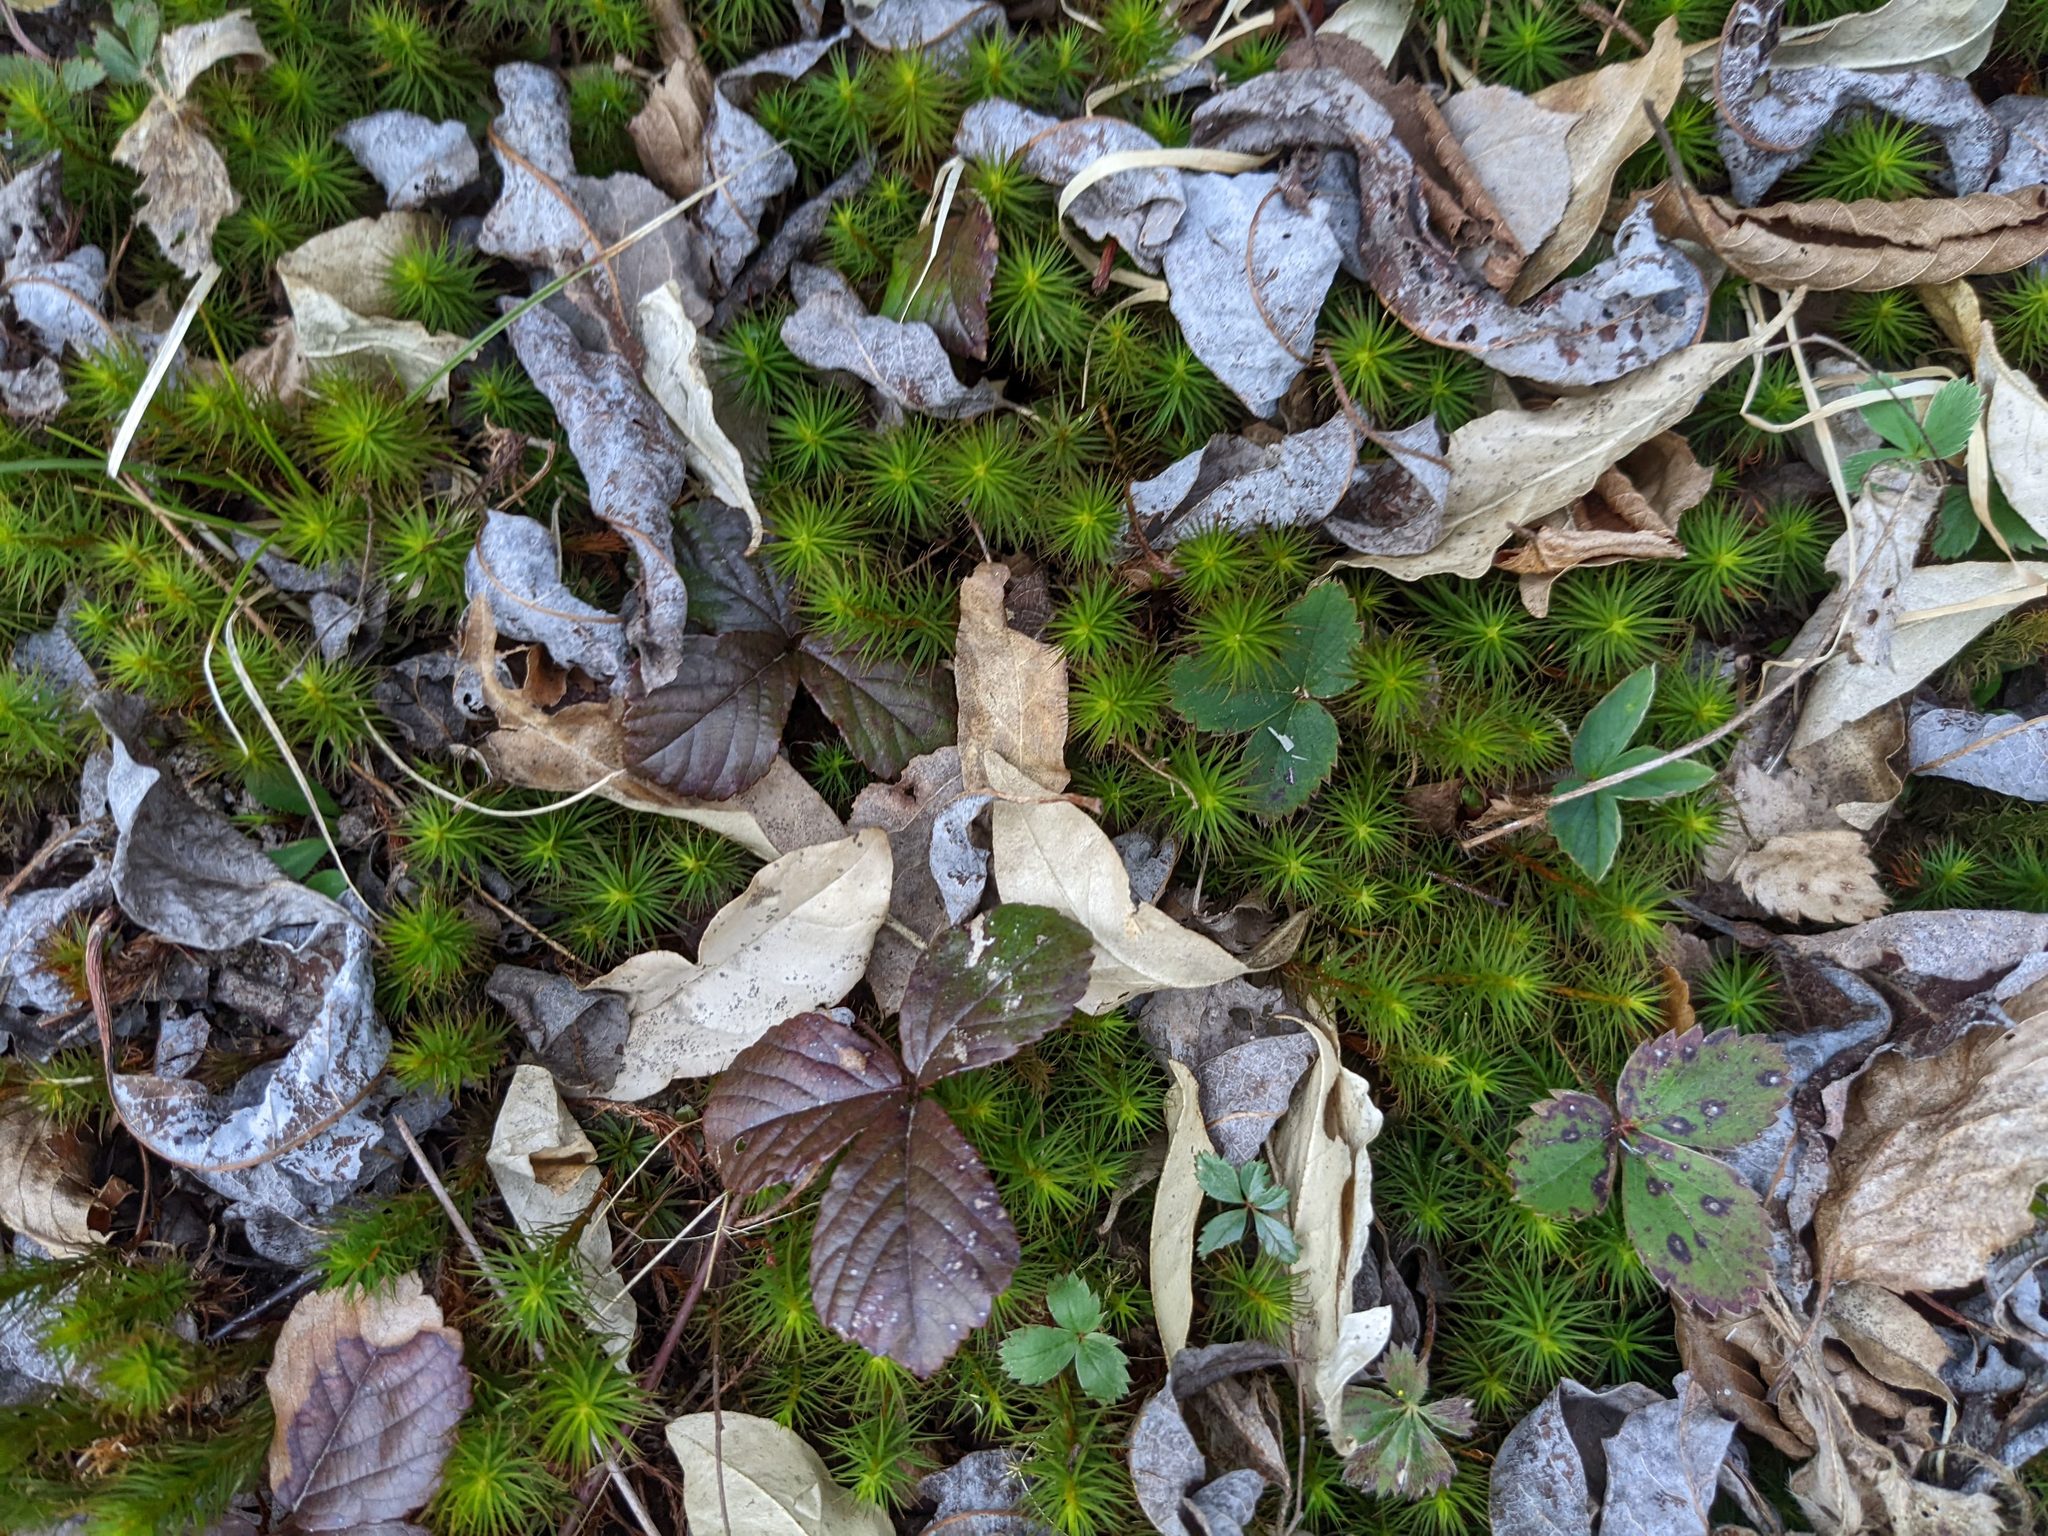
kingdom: Plantae
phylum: Tracheophyta
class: Magnoliopsida
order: Rosales
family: Rosaceae
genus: Rubus
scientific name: Rubus hispidus
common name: Running blackberry
